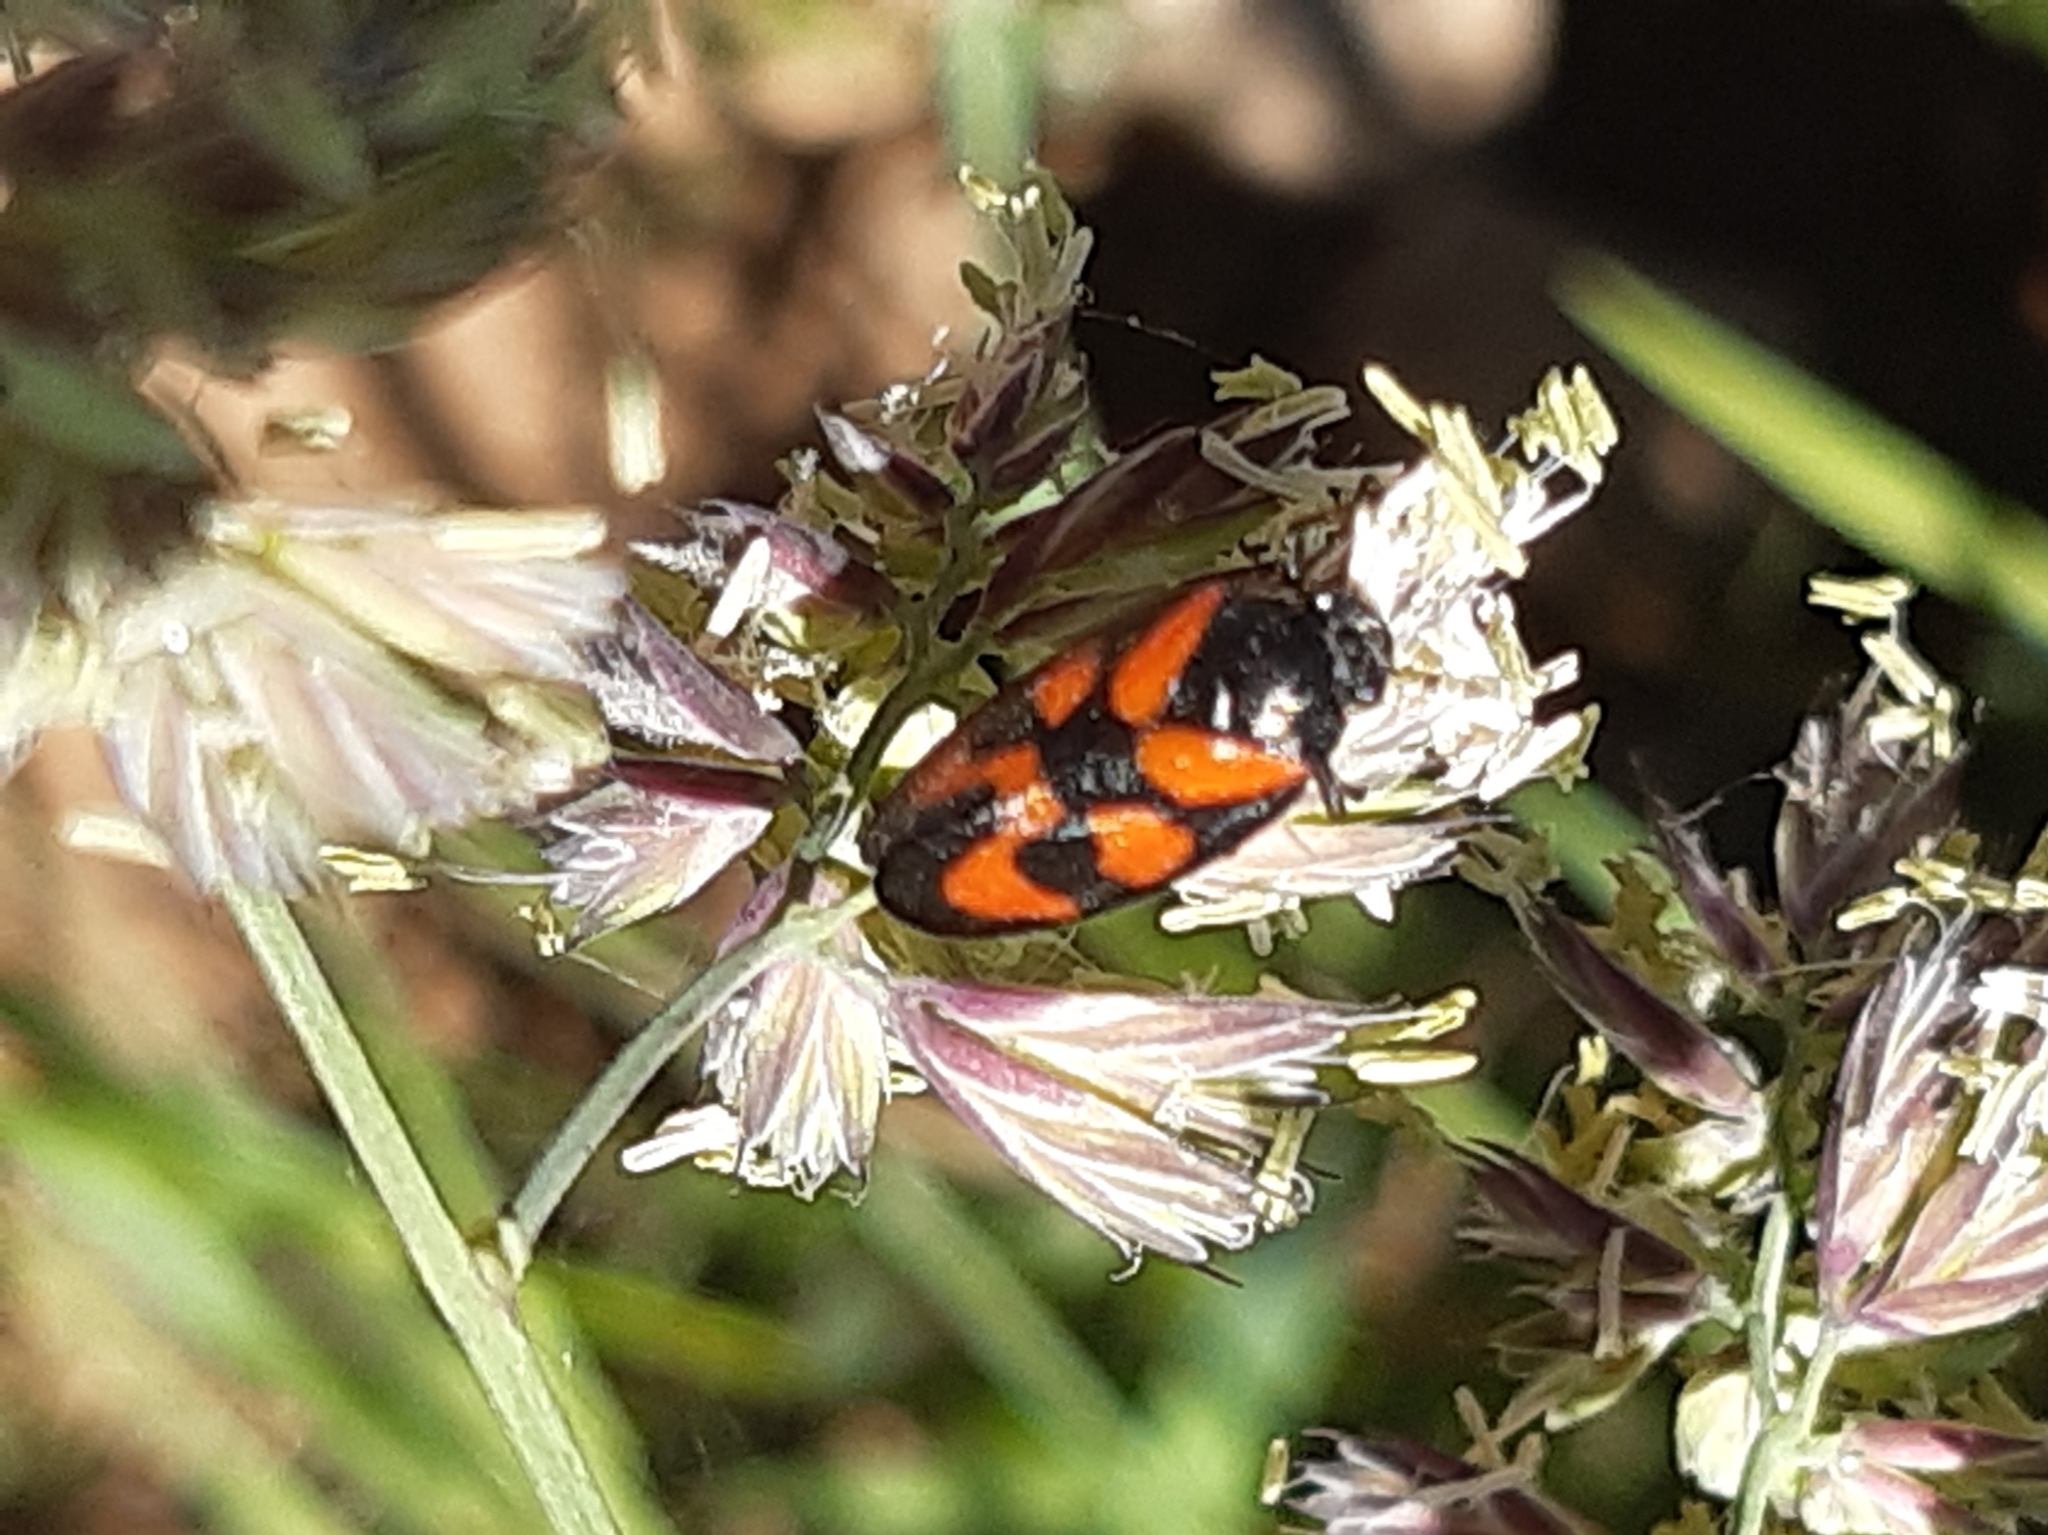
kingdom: Animalia
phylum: Arthropoda
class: Insecta
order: Hemiptera
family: Cercopidae
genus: Cercopis
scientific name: Cercopis vulnerata
